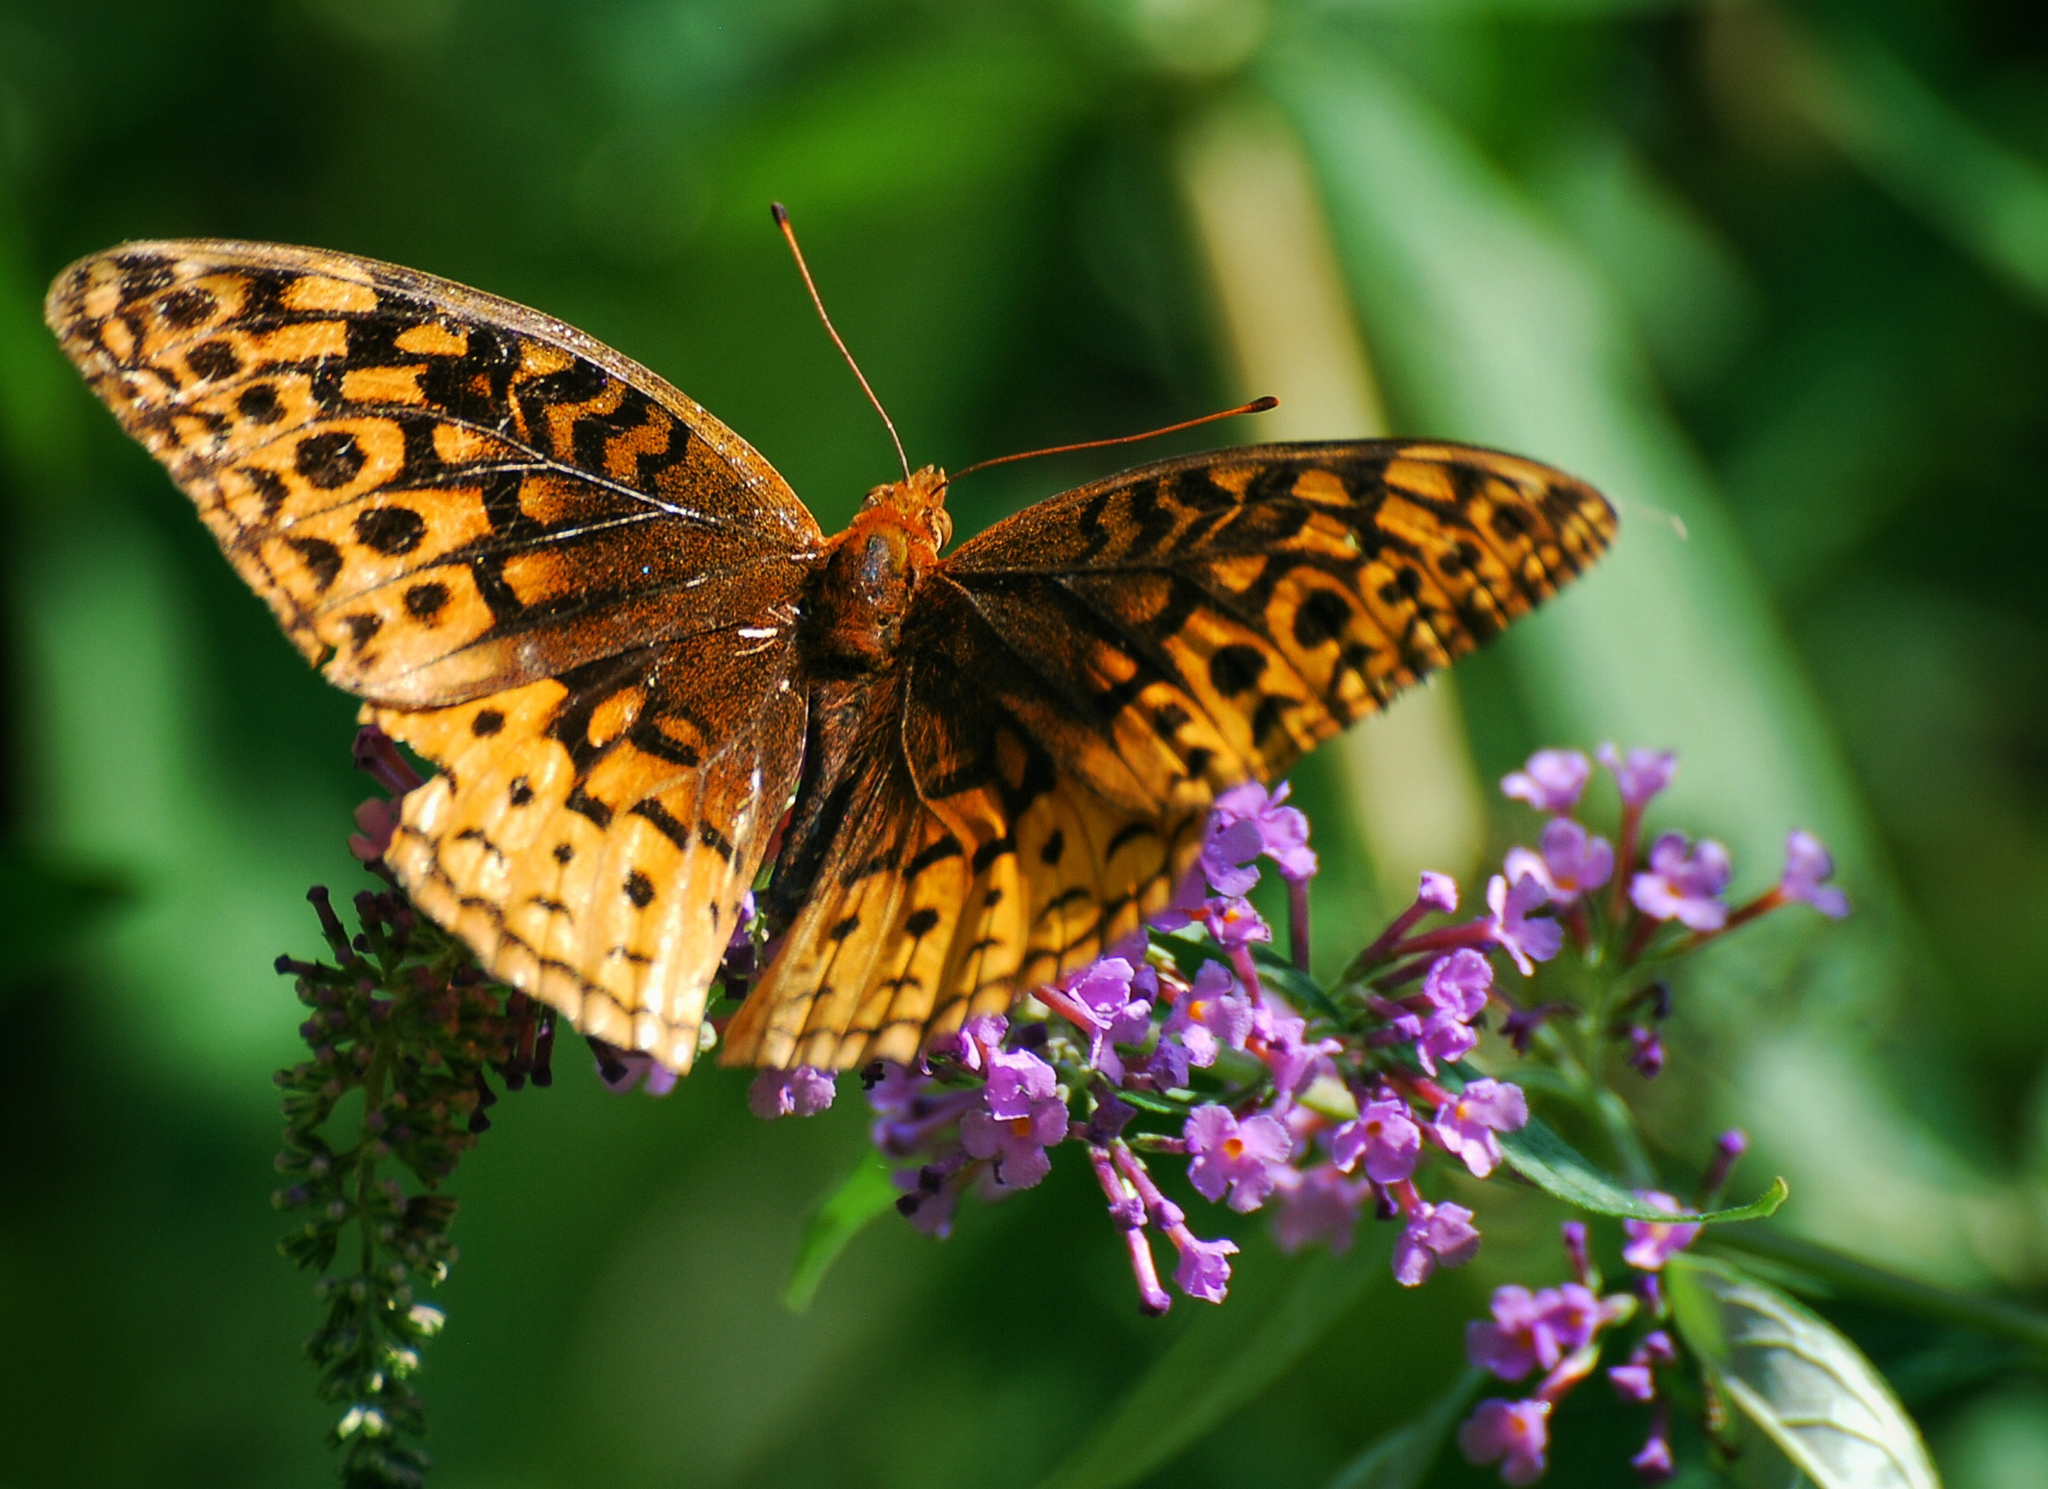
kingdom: Animalia
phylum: Arthropoda
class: Insecta
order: Lepidoptera
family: Nymphalidae
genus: Speyeria
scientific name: Speyeria cybele
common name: Great spangled fritillary
